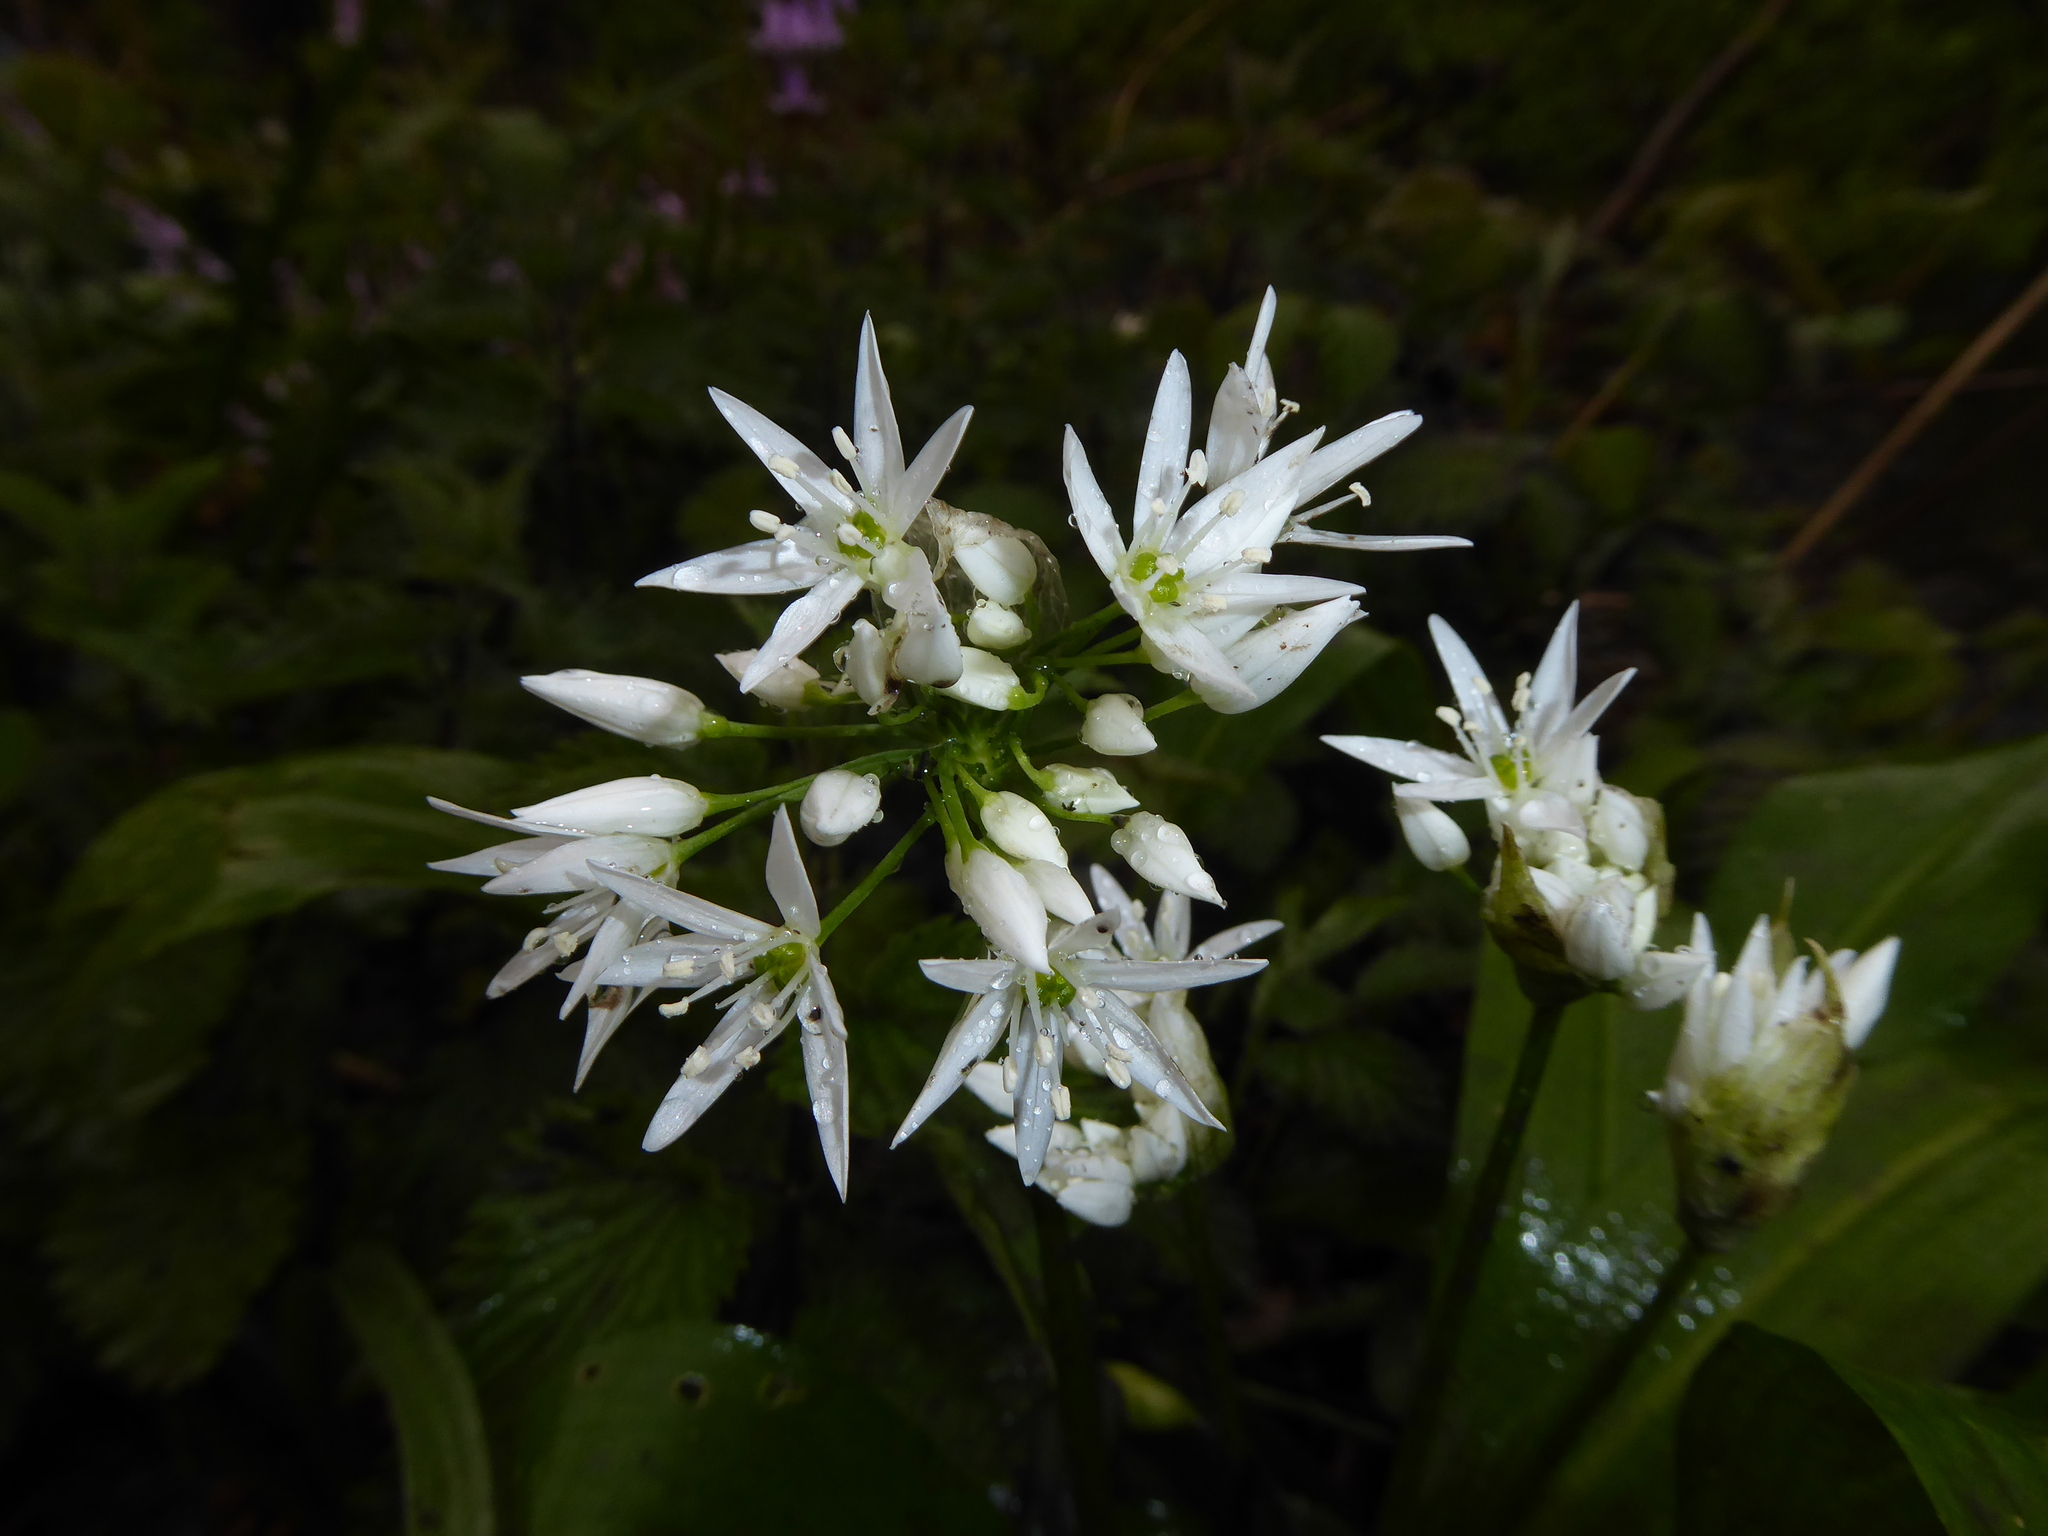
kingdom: Plantae
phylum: Tracheophyta
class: Liliopsida
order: Asparagales
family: Amaryllidaceae
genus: Allium
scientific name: Allium ursinum
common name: Ramsons
